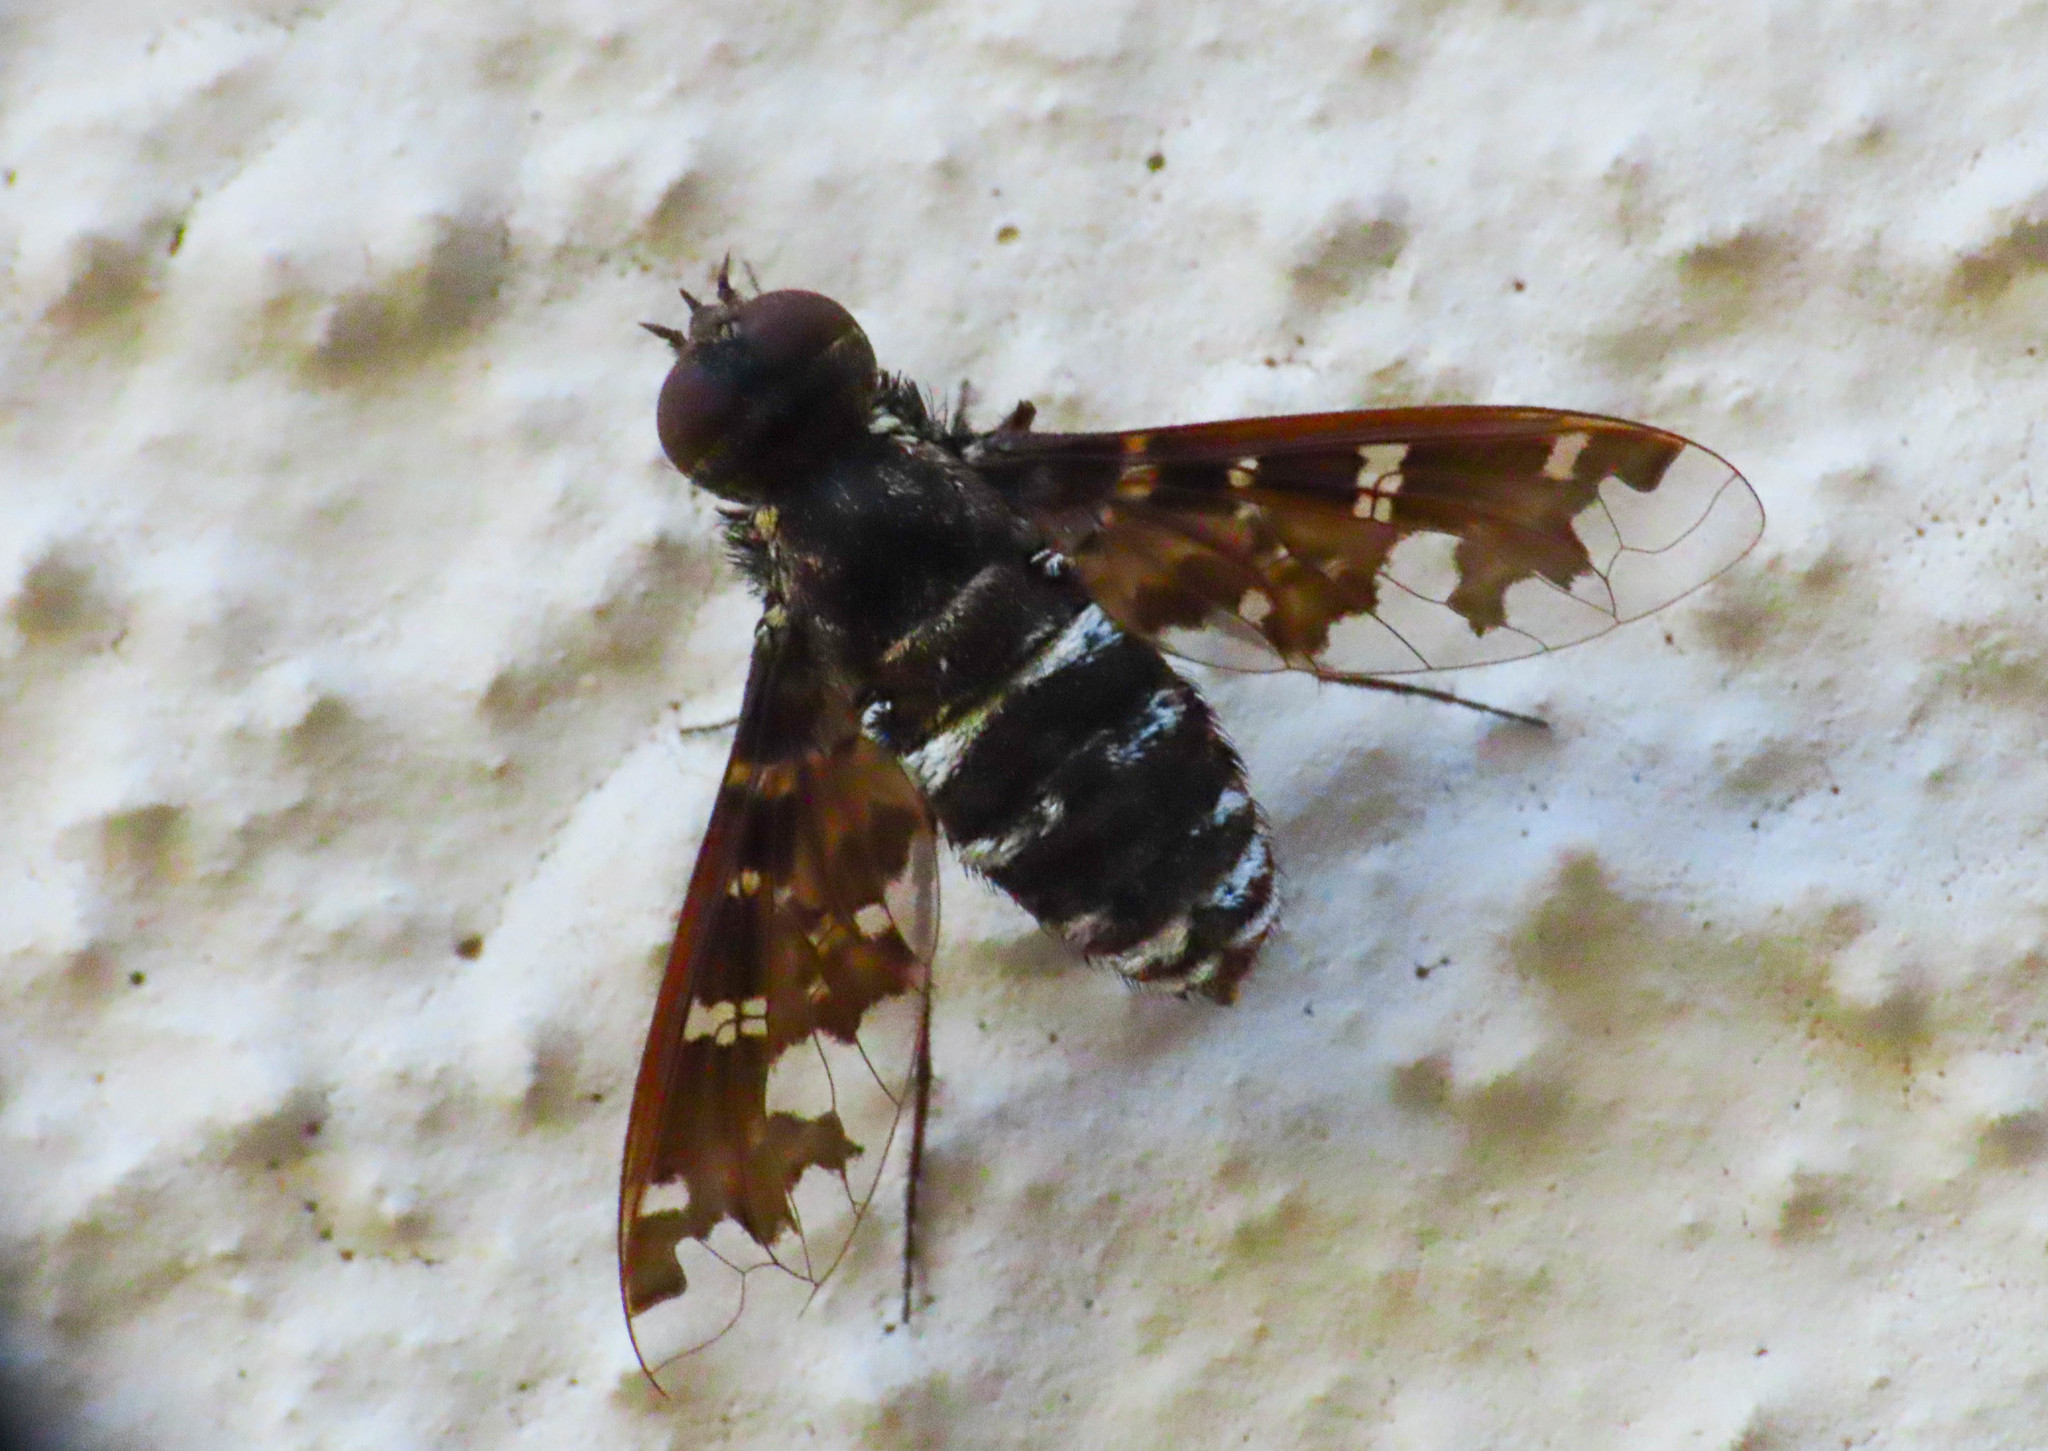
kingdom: Animalia
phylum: Arthropoda
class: Insecta
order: Diptera
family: Bombyliidae
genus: Exoprosopa
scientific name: Exoprosopa jacchus
